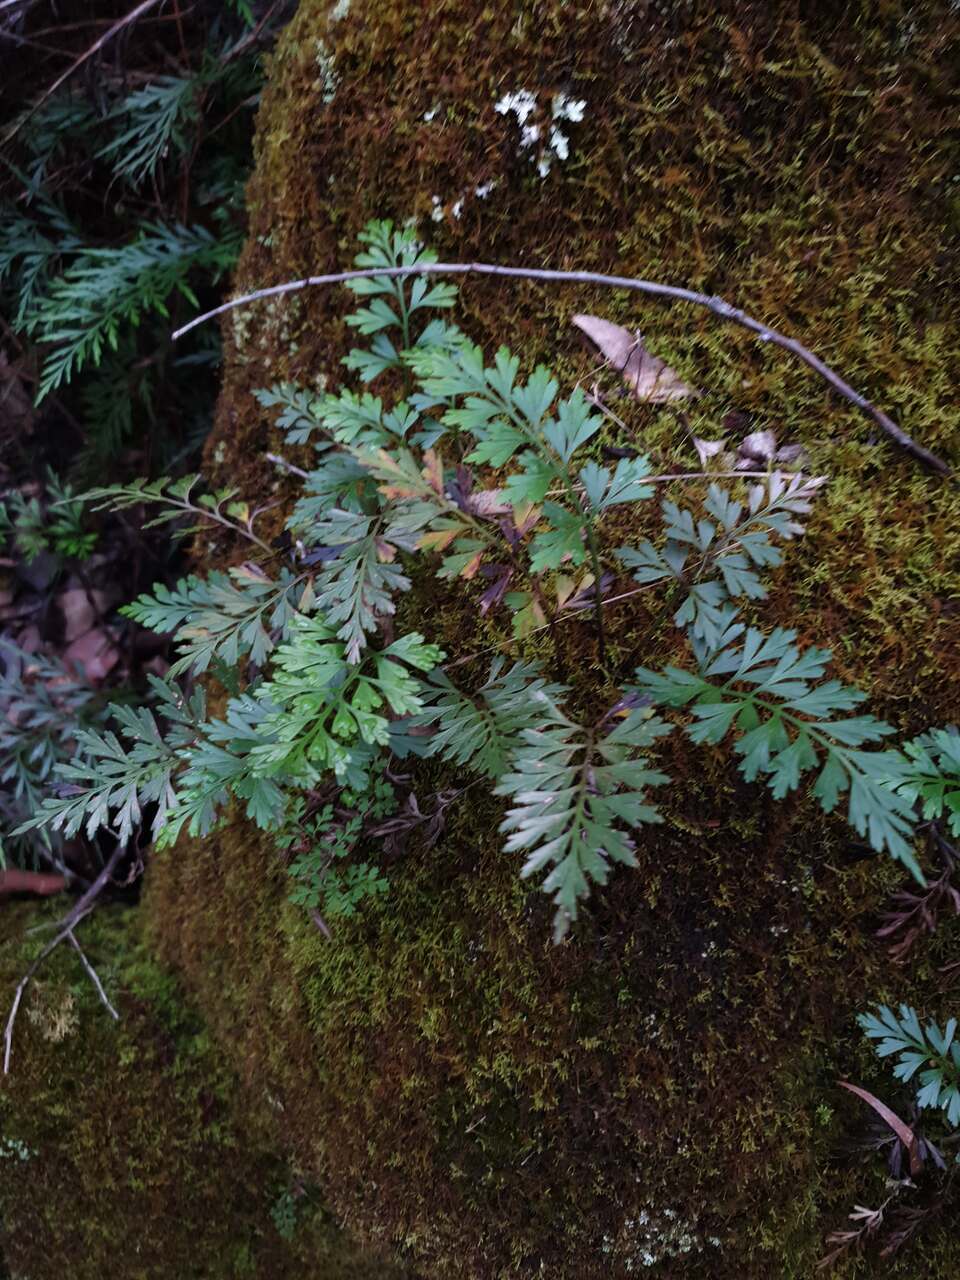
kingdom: Plantae
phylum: Tracheophyta
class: Polypodiopsida
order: Polypodiales
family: Aspleniaceae
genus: Asplenium
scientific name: Asplenium aethiopicum
